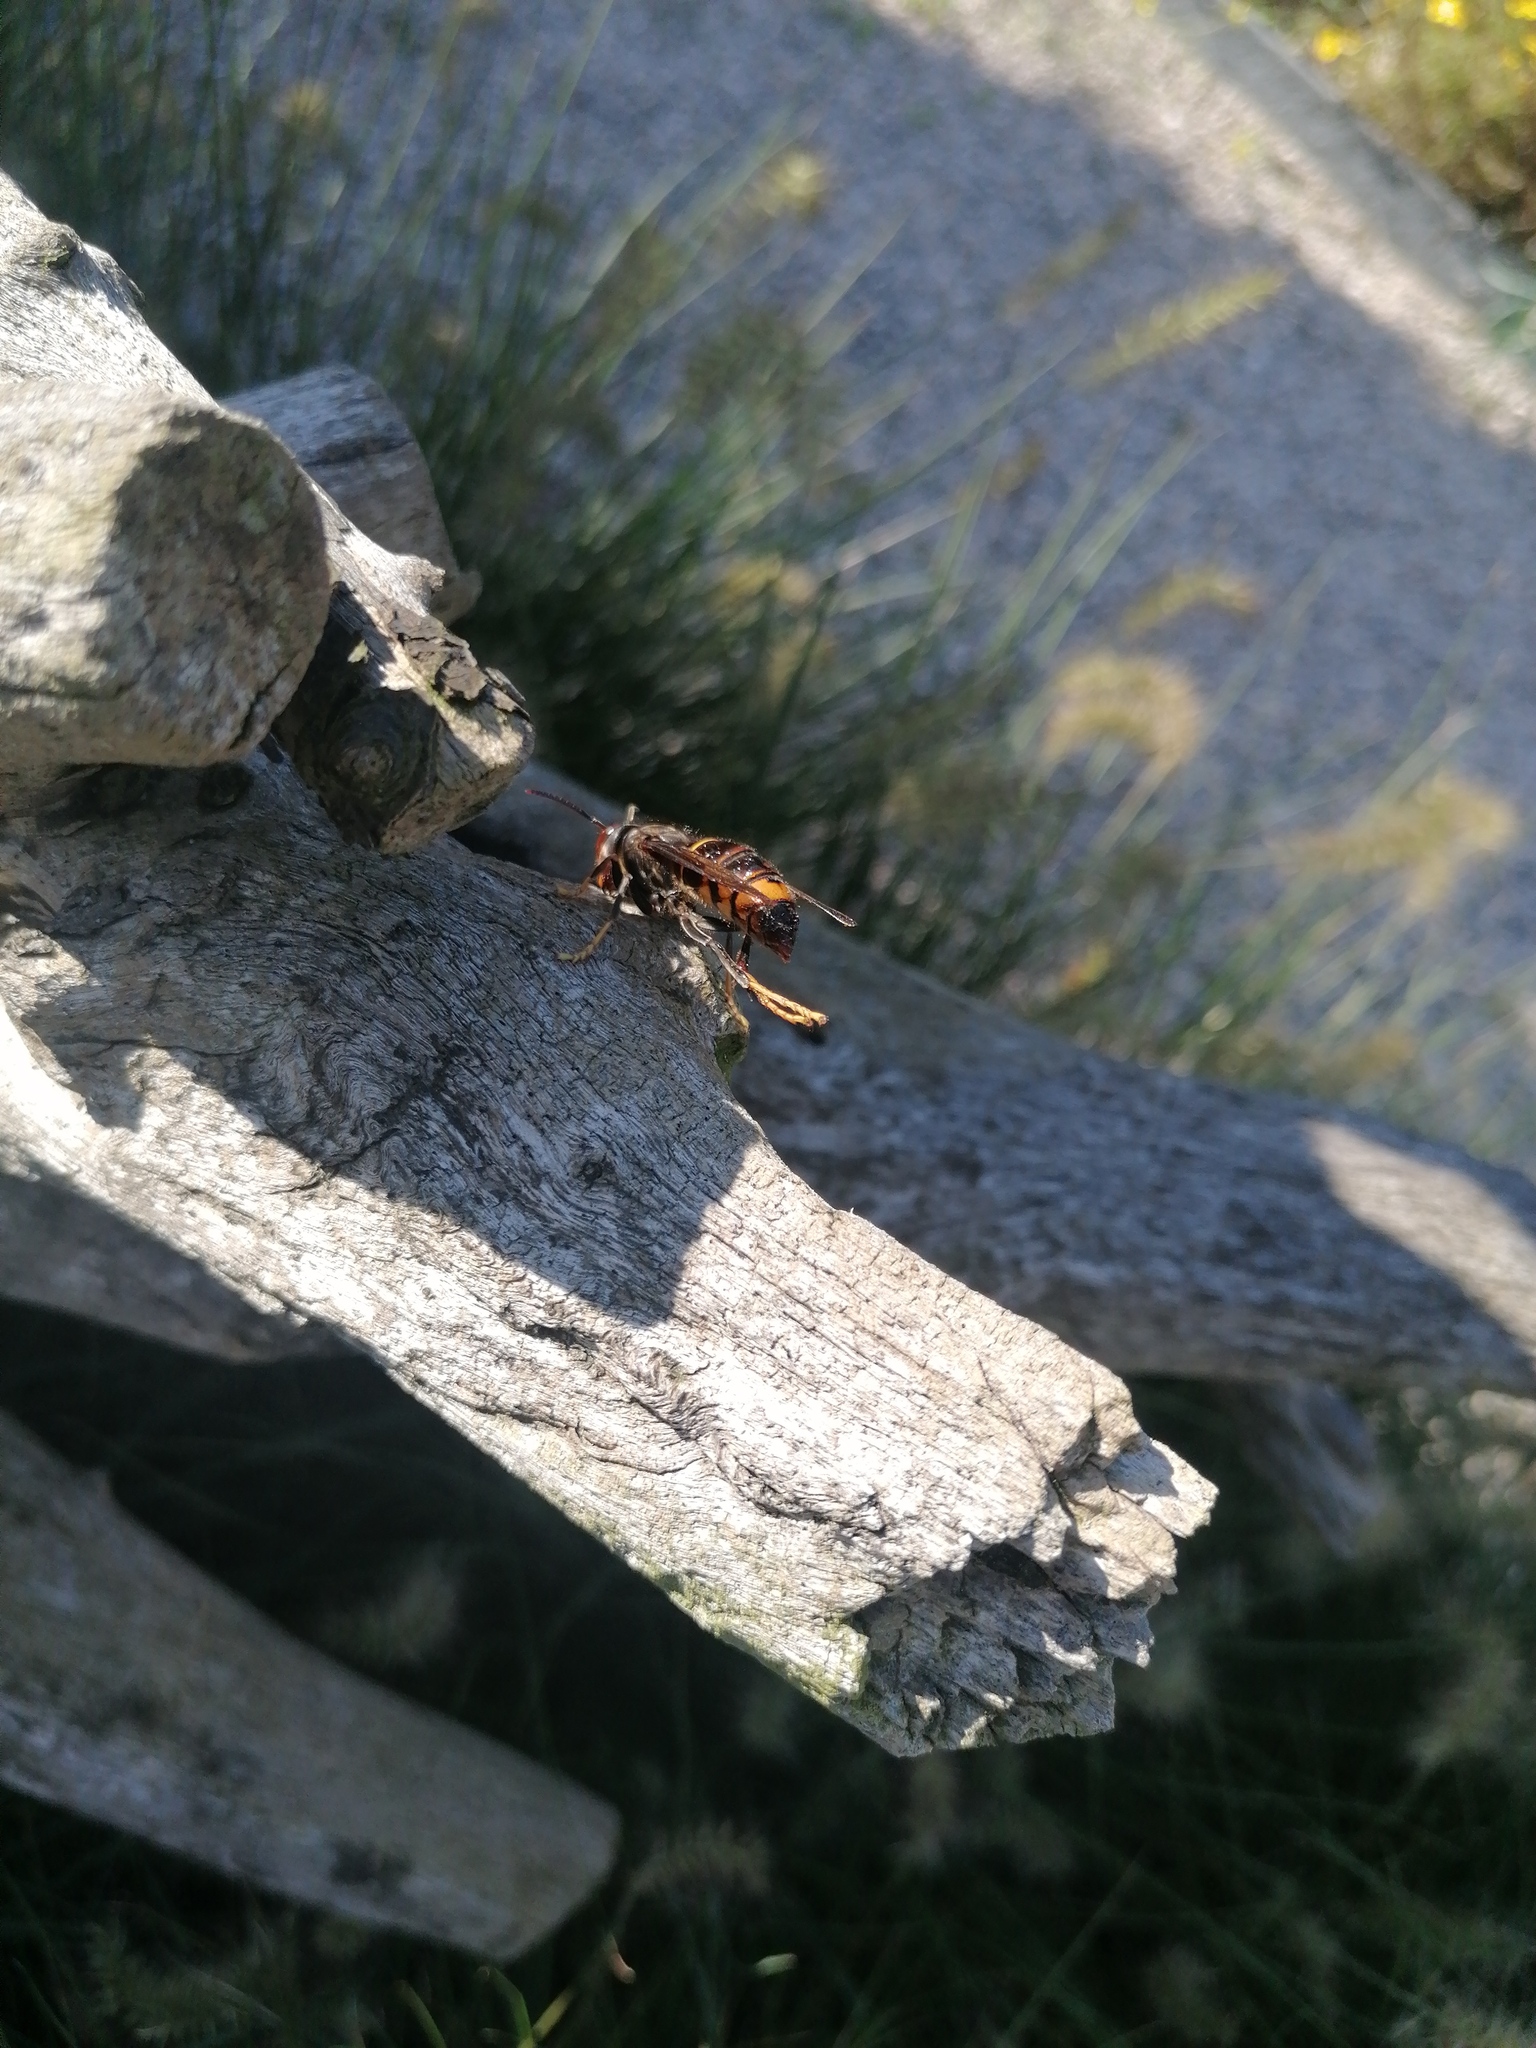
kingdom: Animalia
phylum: Arthropoda
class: Insecta
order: Hymenoptera
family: Vespidae
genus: Vespa
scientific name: Vespa velutina
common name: Asian hornet
